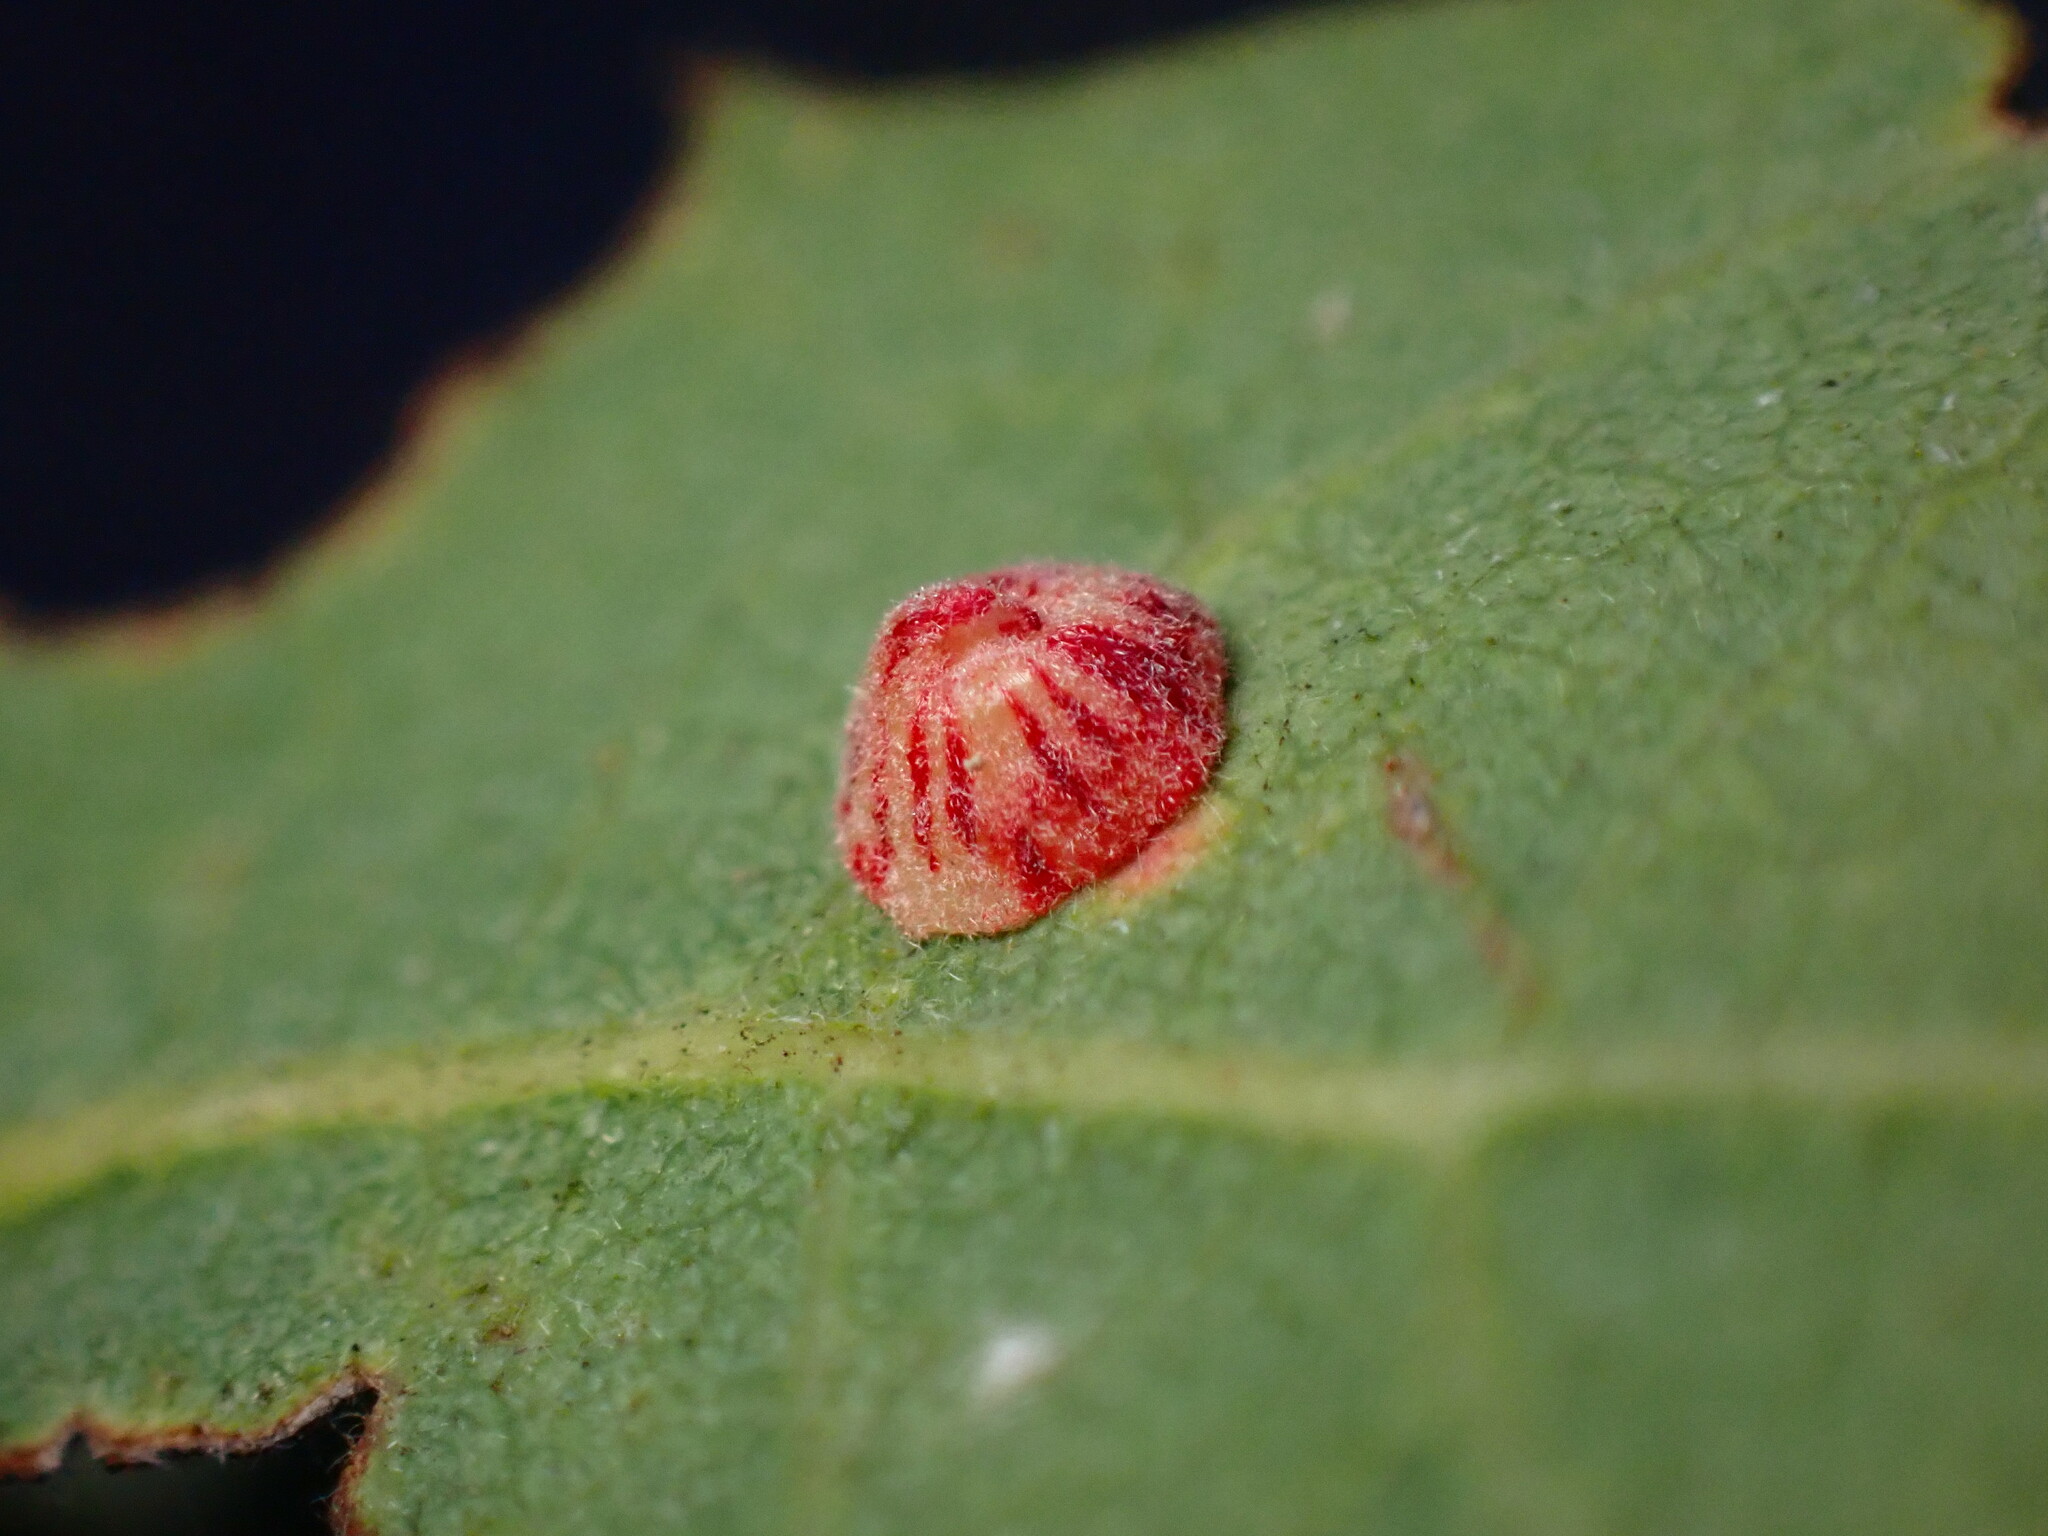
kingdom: Animalia
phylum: Arthropoda
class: Insecta
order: Hymenoptera
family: Cynipidae
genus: Andricus
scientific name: Andricus
